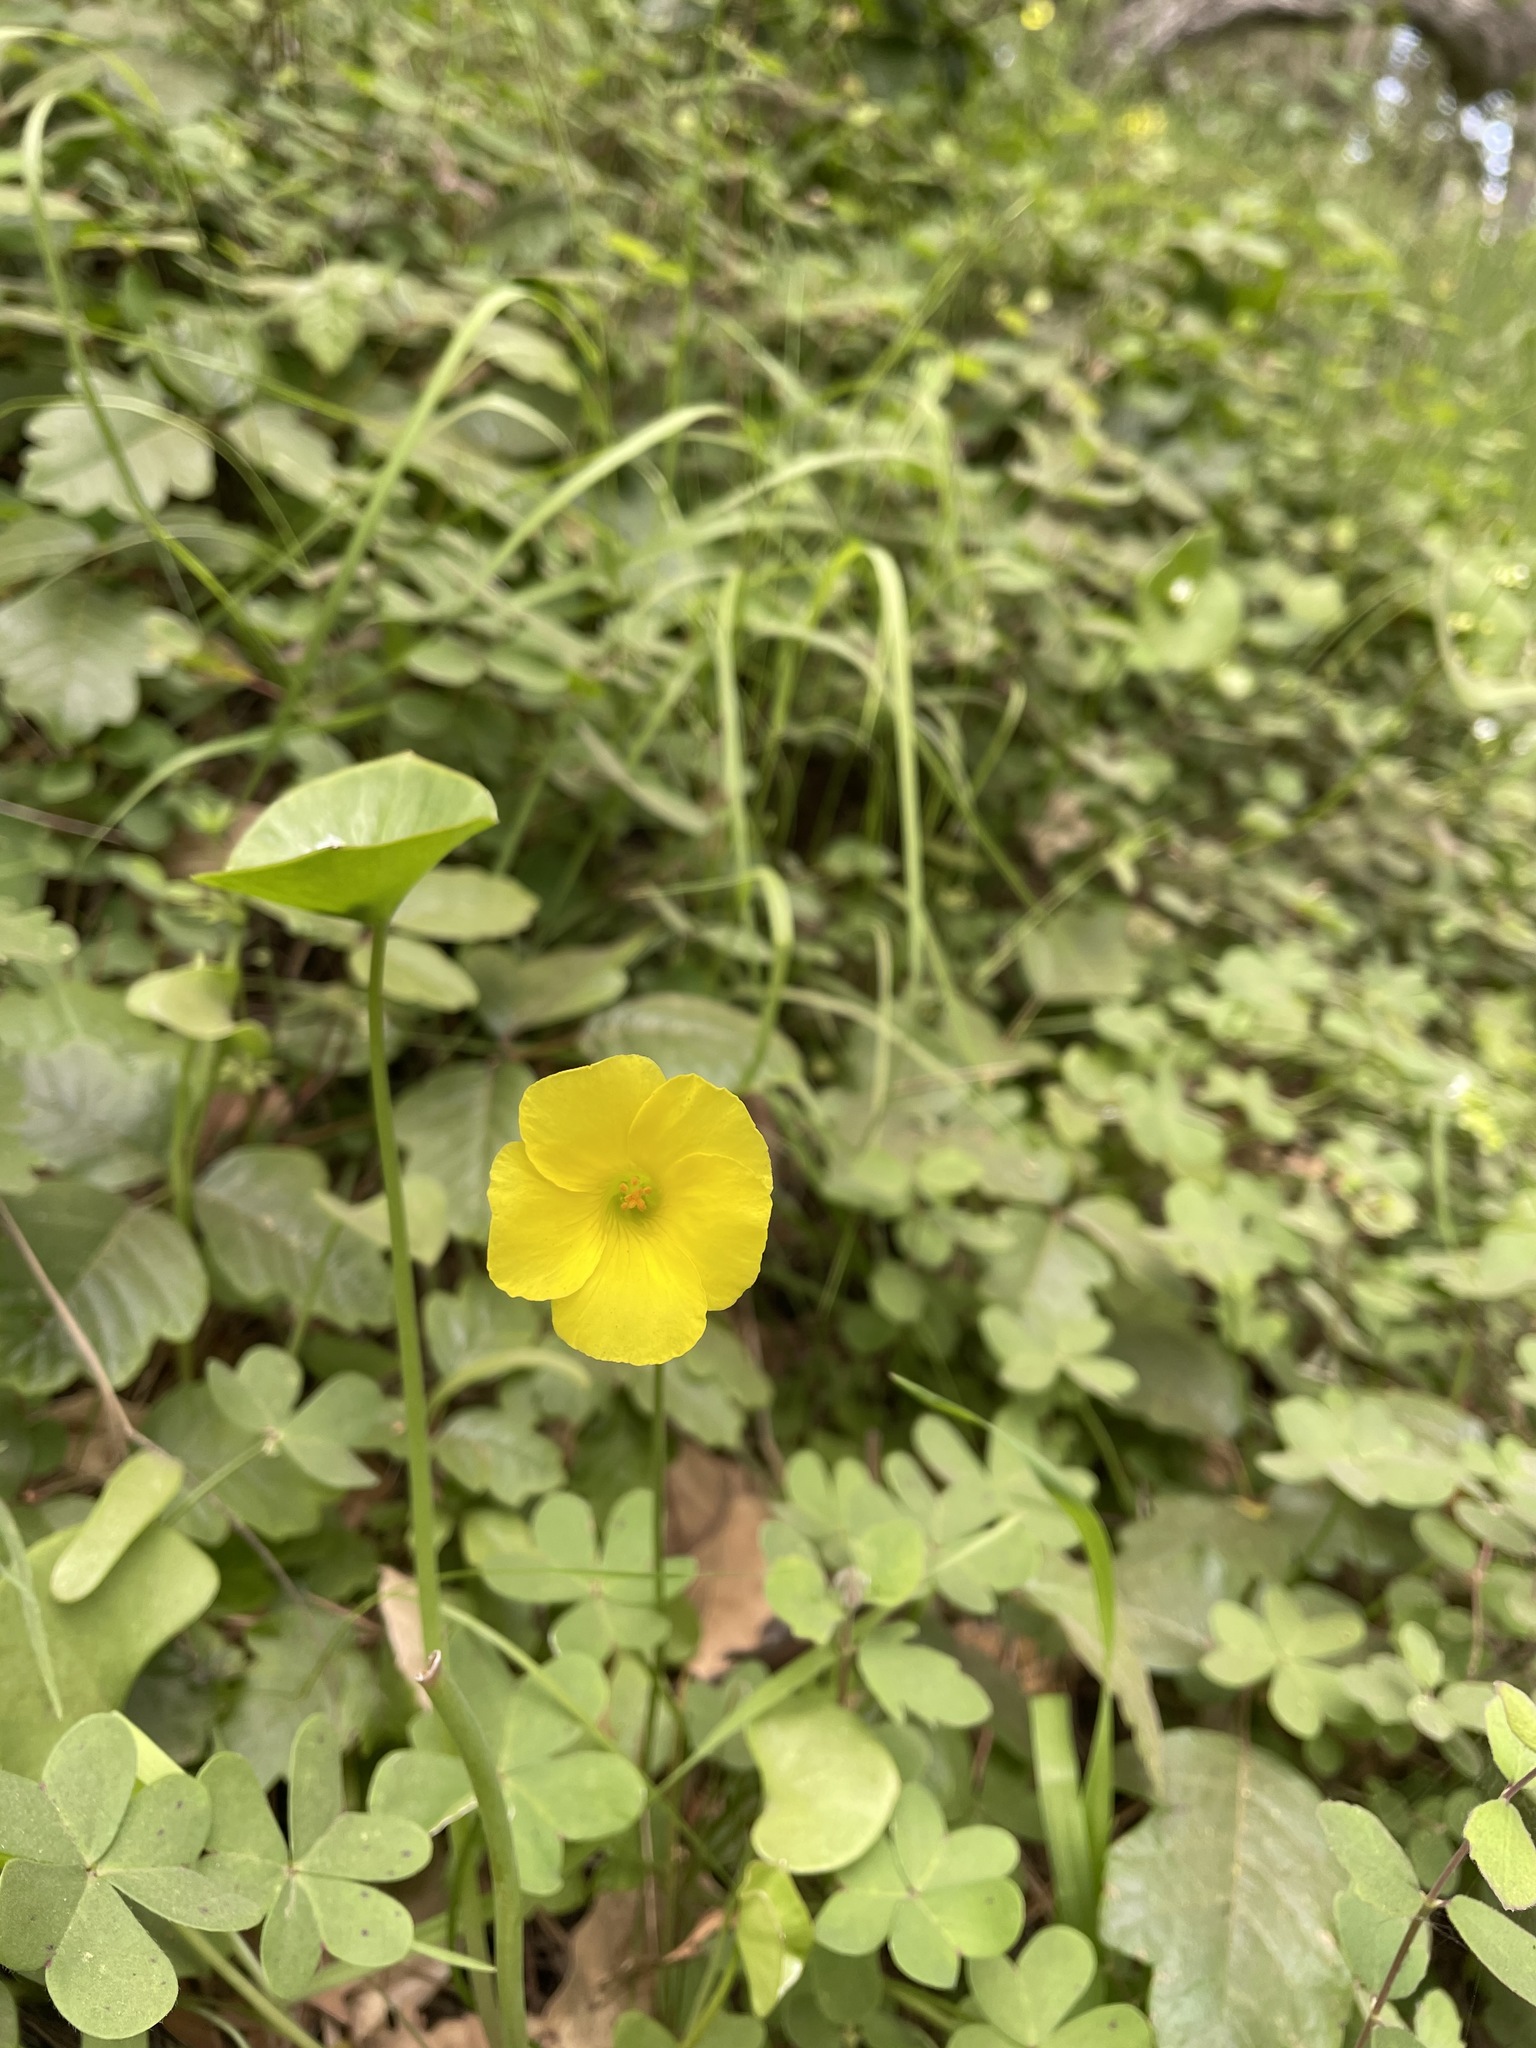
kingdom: Plantae
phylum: Tracheophyta
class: Magnoliopsida
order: Oxalidales
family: Oxalidaceae
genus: Oxalis
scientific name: Oxalis pes-caprae
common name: Bermuda-buttercup
